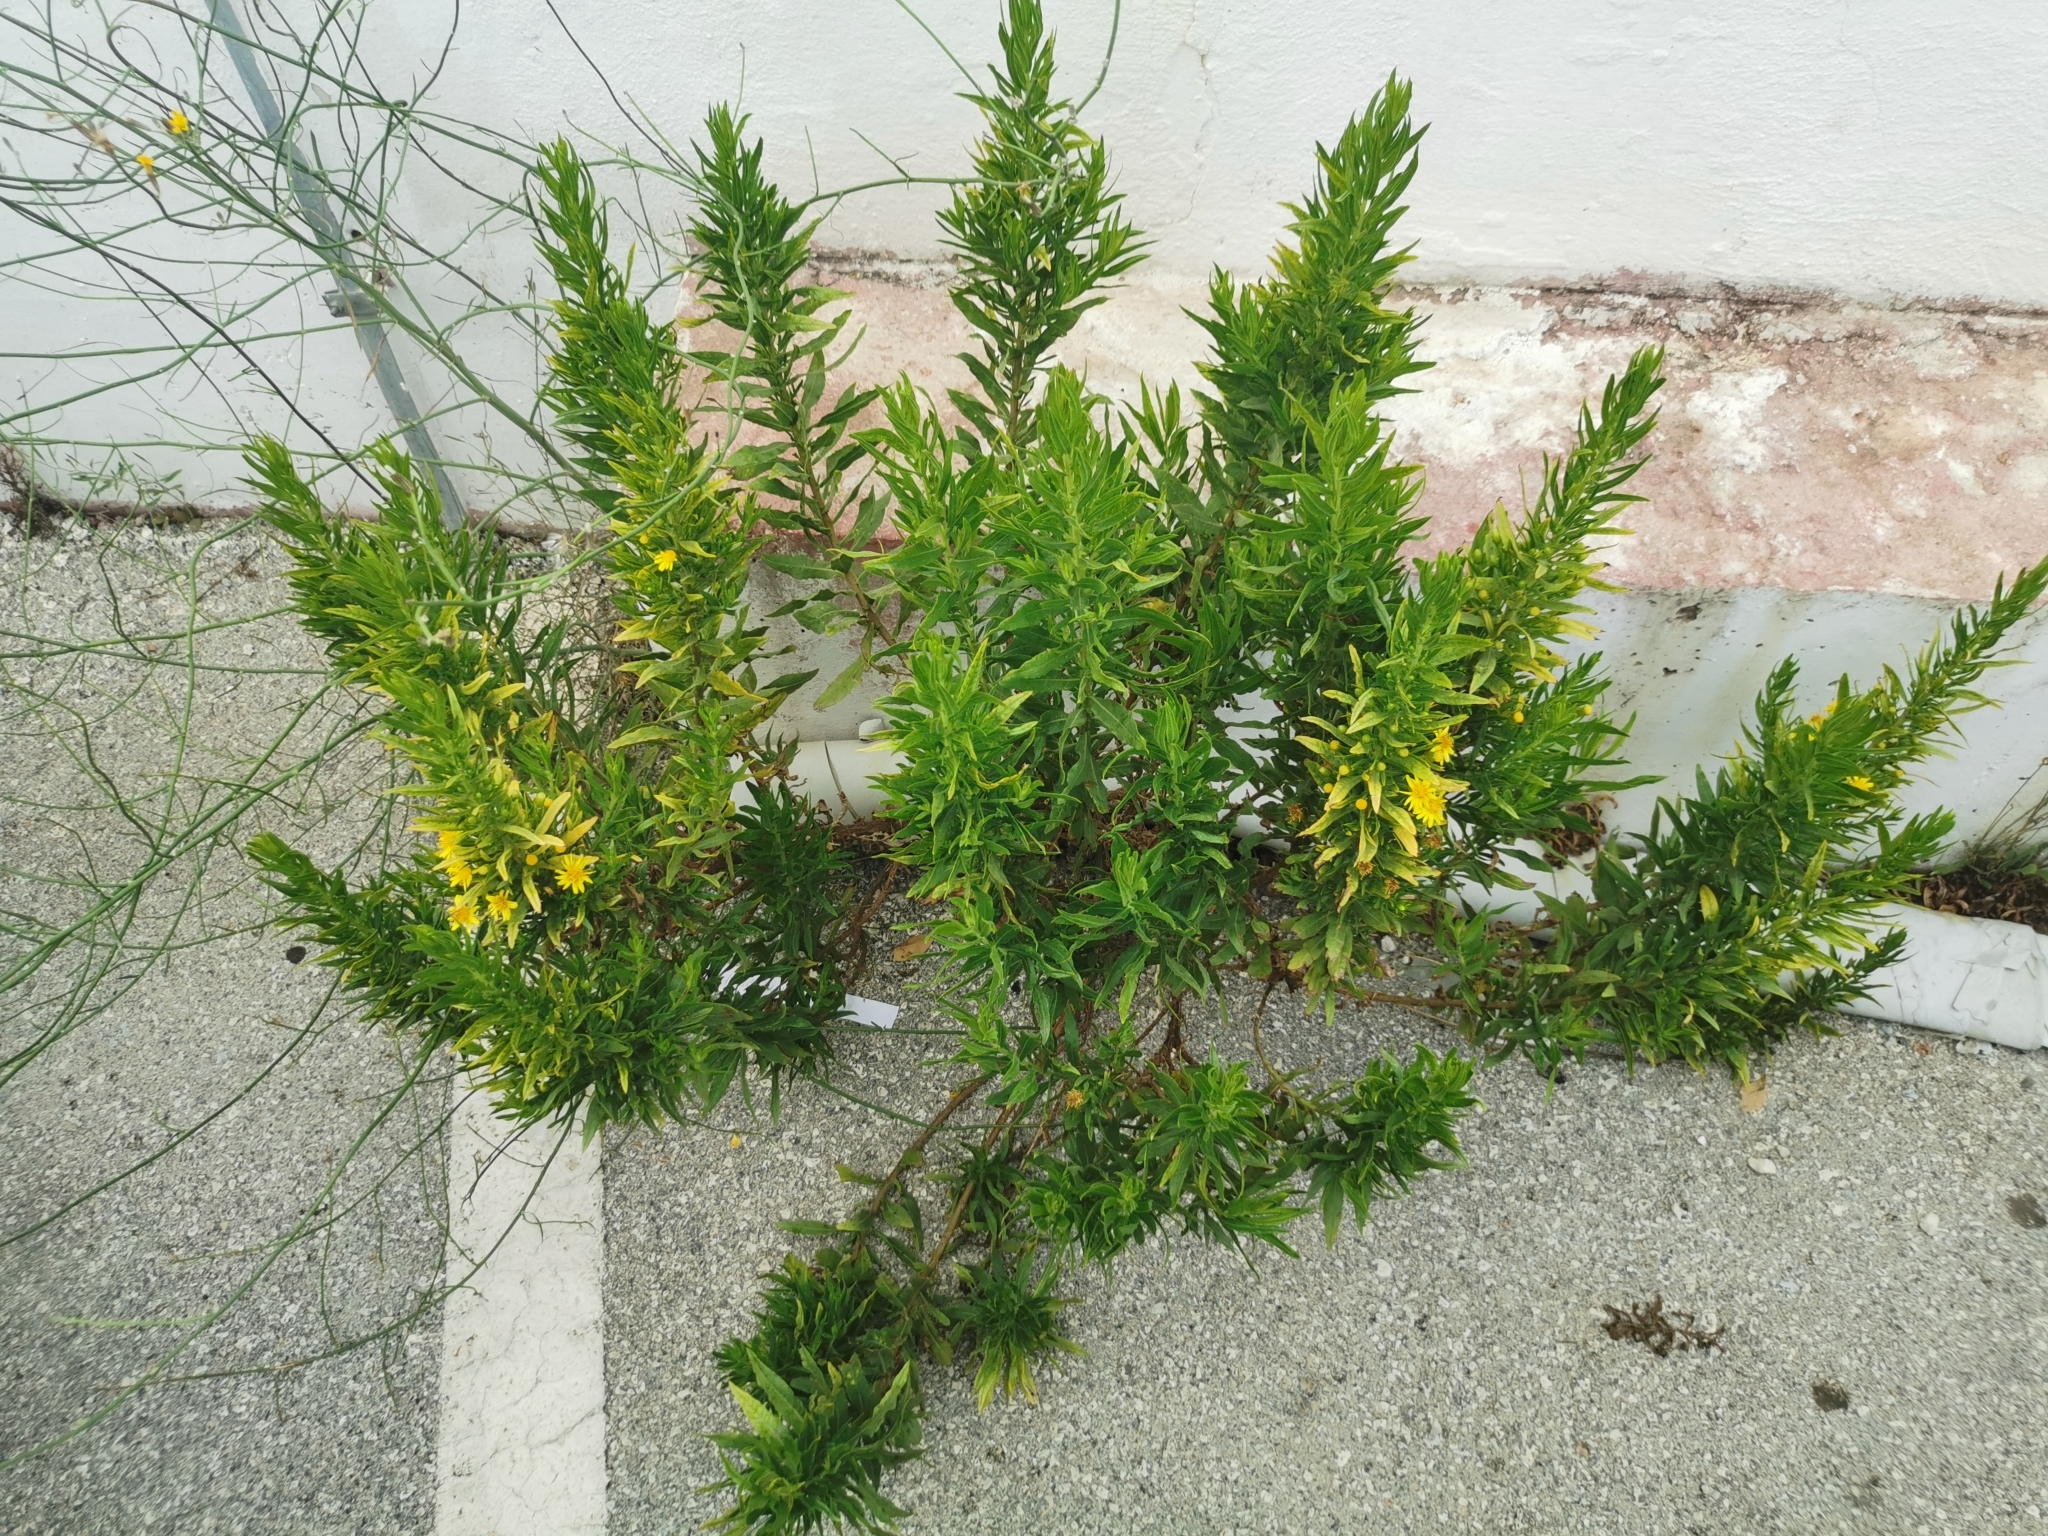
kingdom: Plantae
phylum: Tracheophyta
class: Magnoliopsida
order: Asterales
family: Asteraceae
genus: Dittrichia
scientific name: Dittrichia viscosa
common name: Woody fleabane
